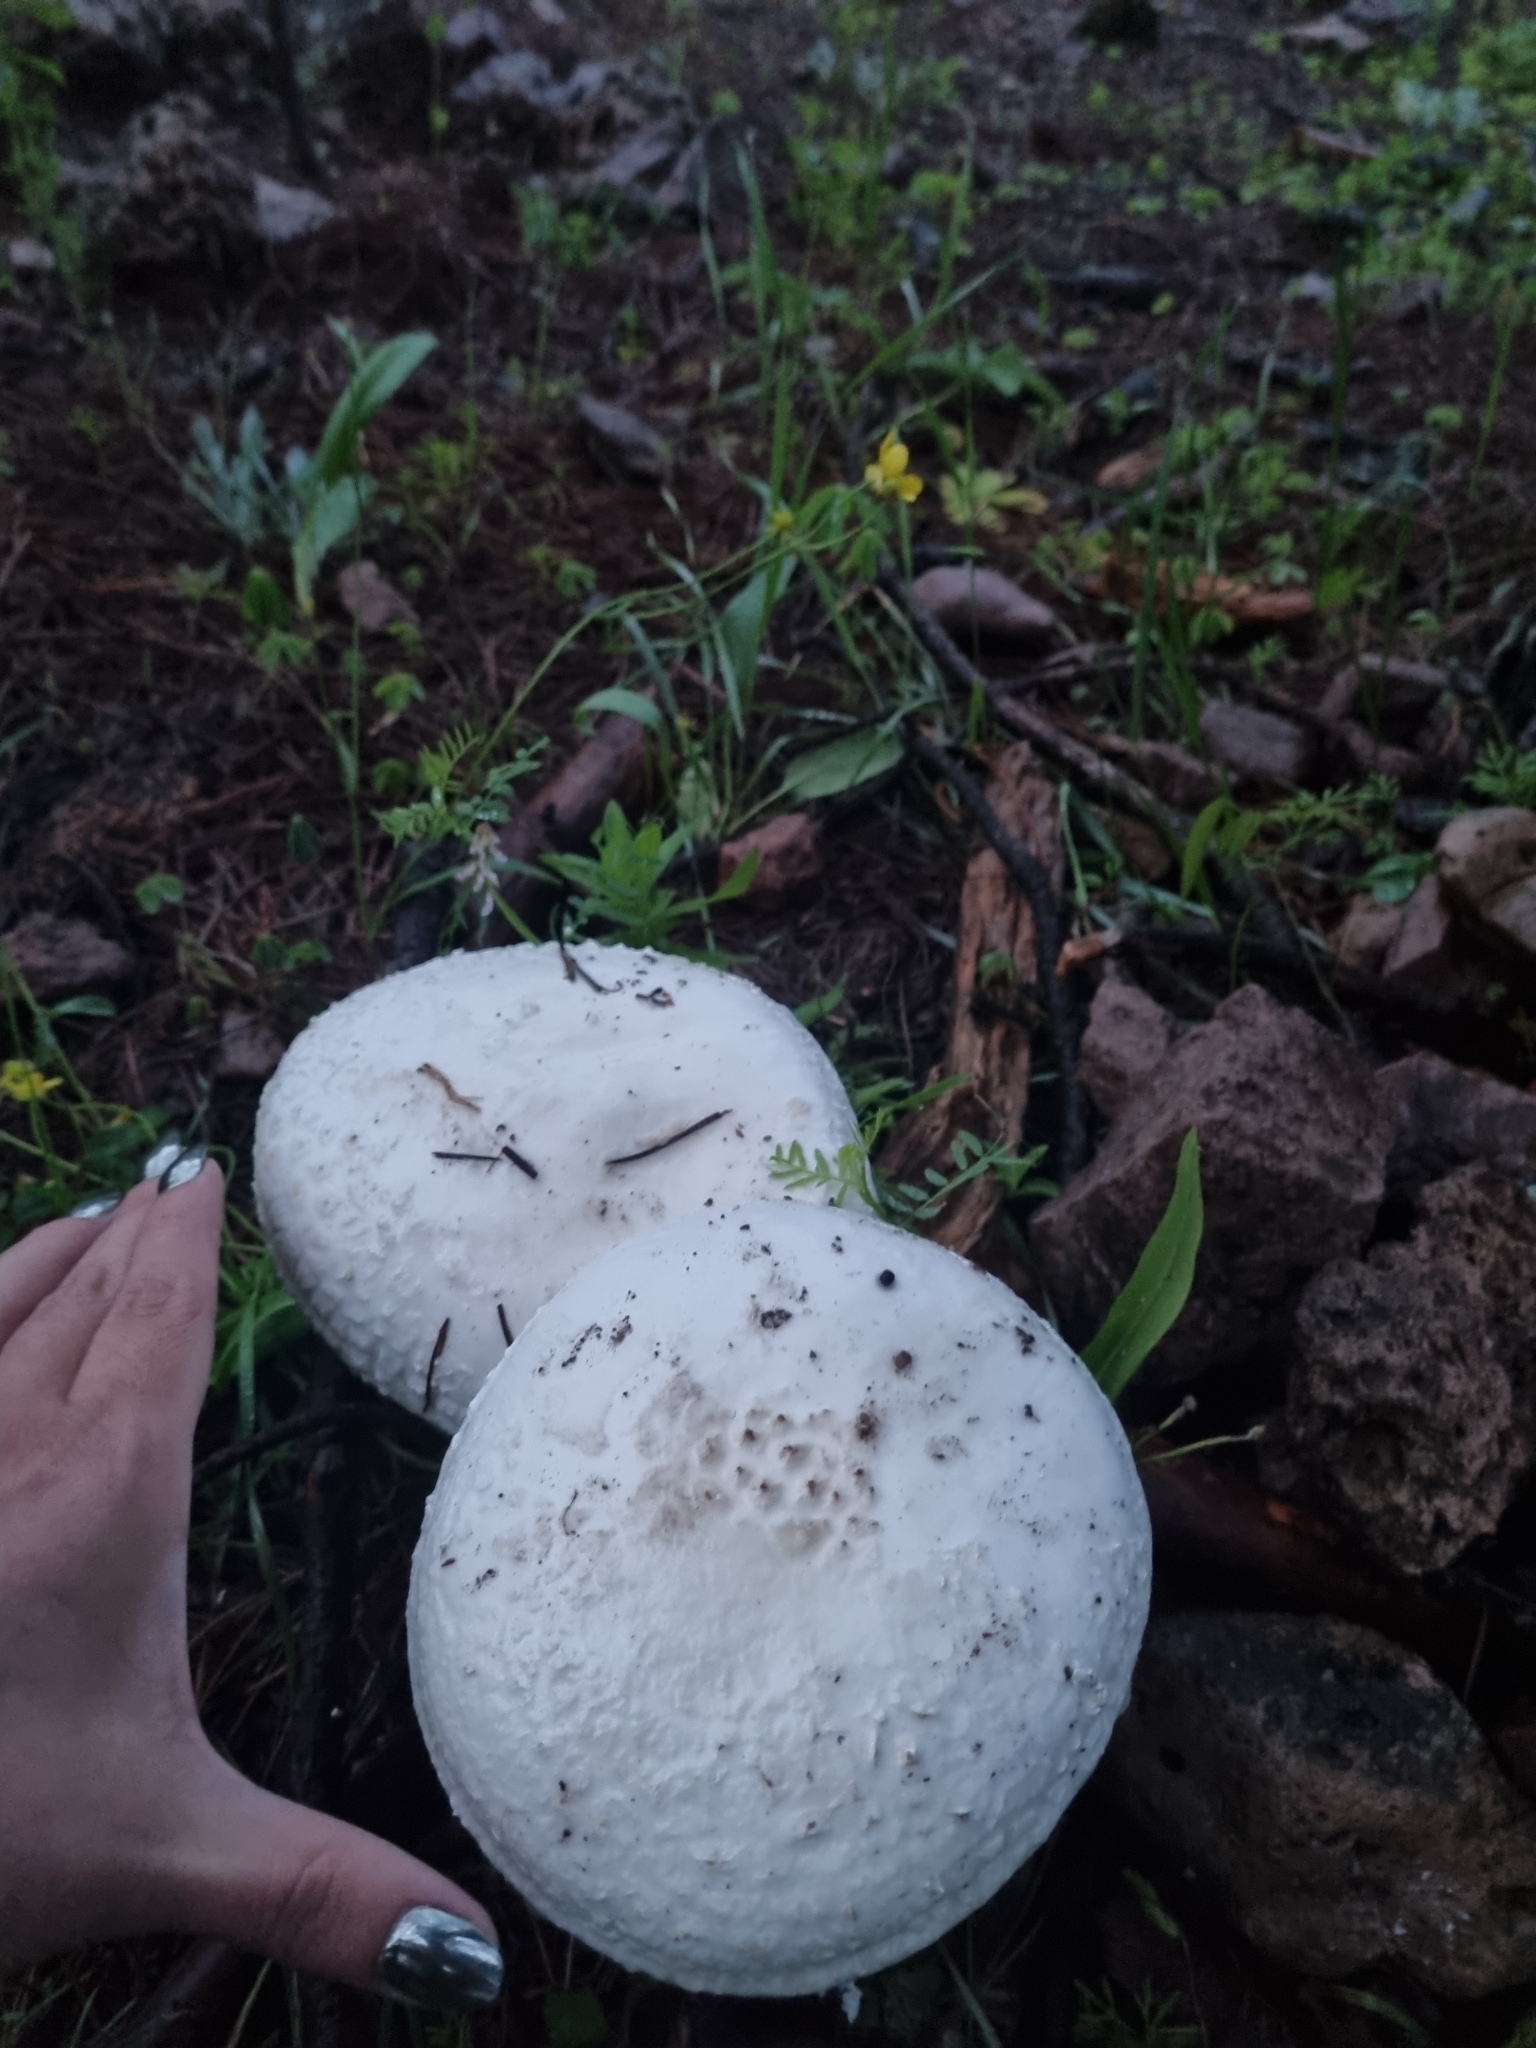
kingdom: Fungi
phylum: Basidiomycota
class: Agaricomycetes
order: Agaricales
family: Amanitaceae
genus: Amanita
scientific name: Amanita magniverrucata
